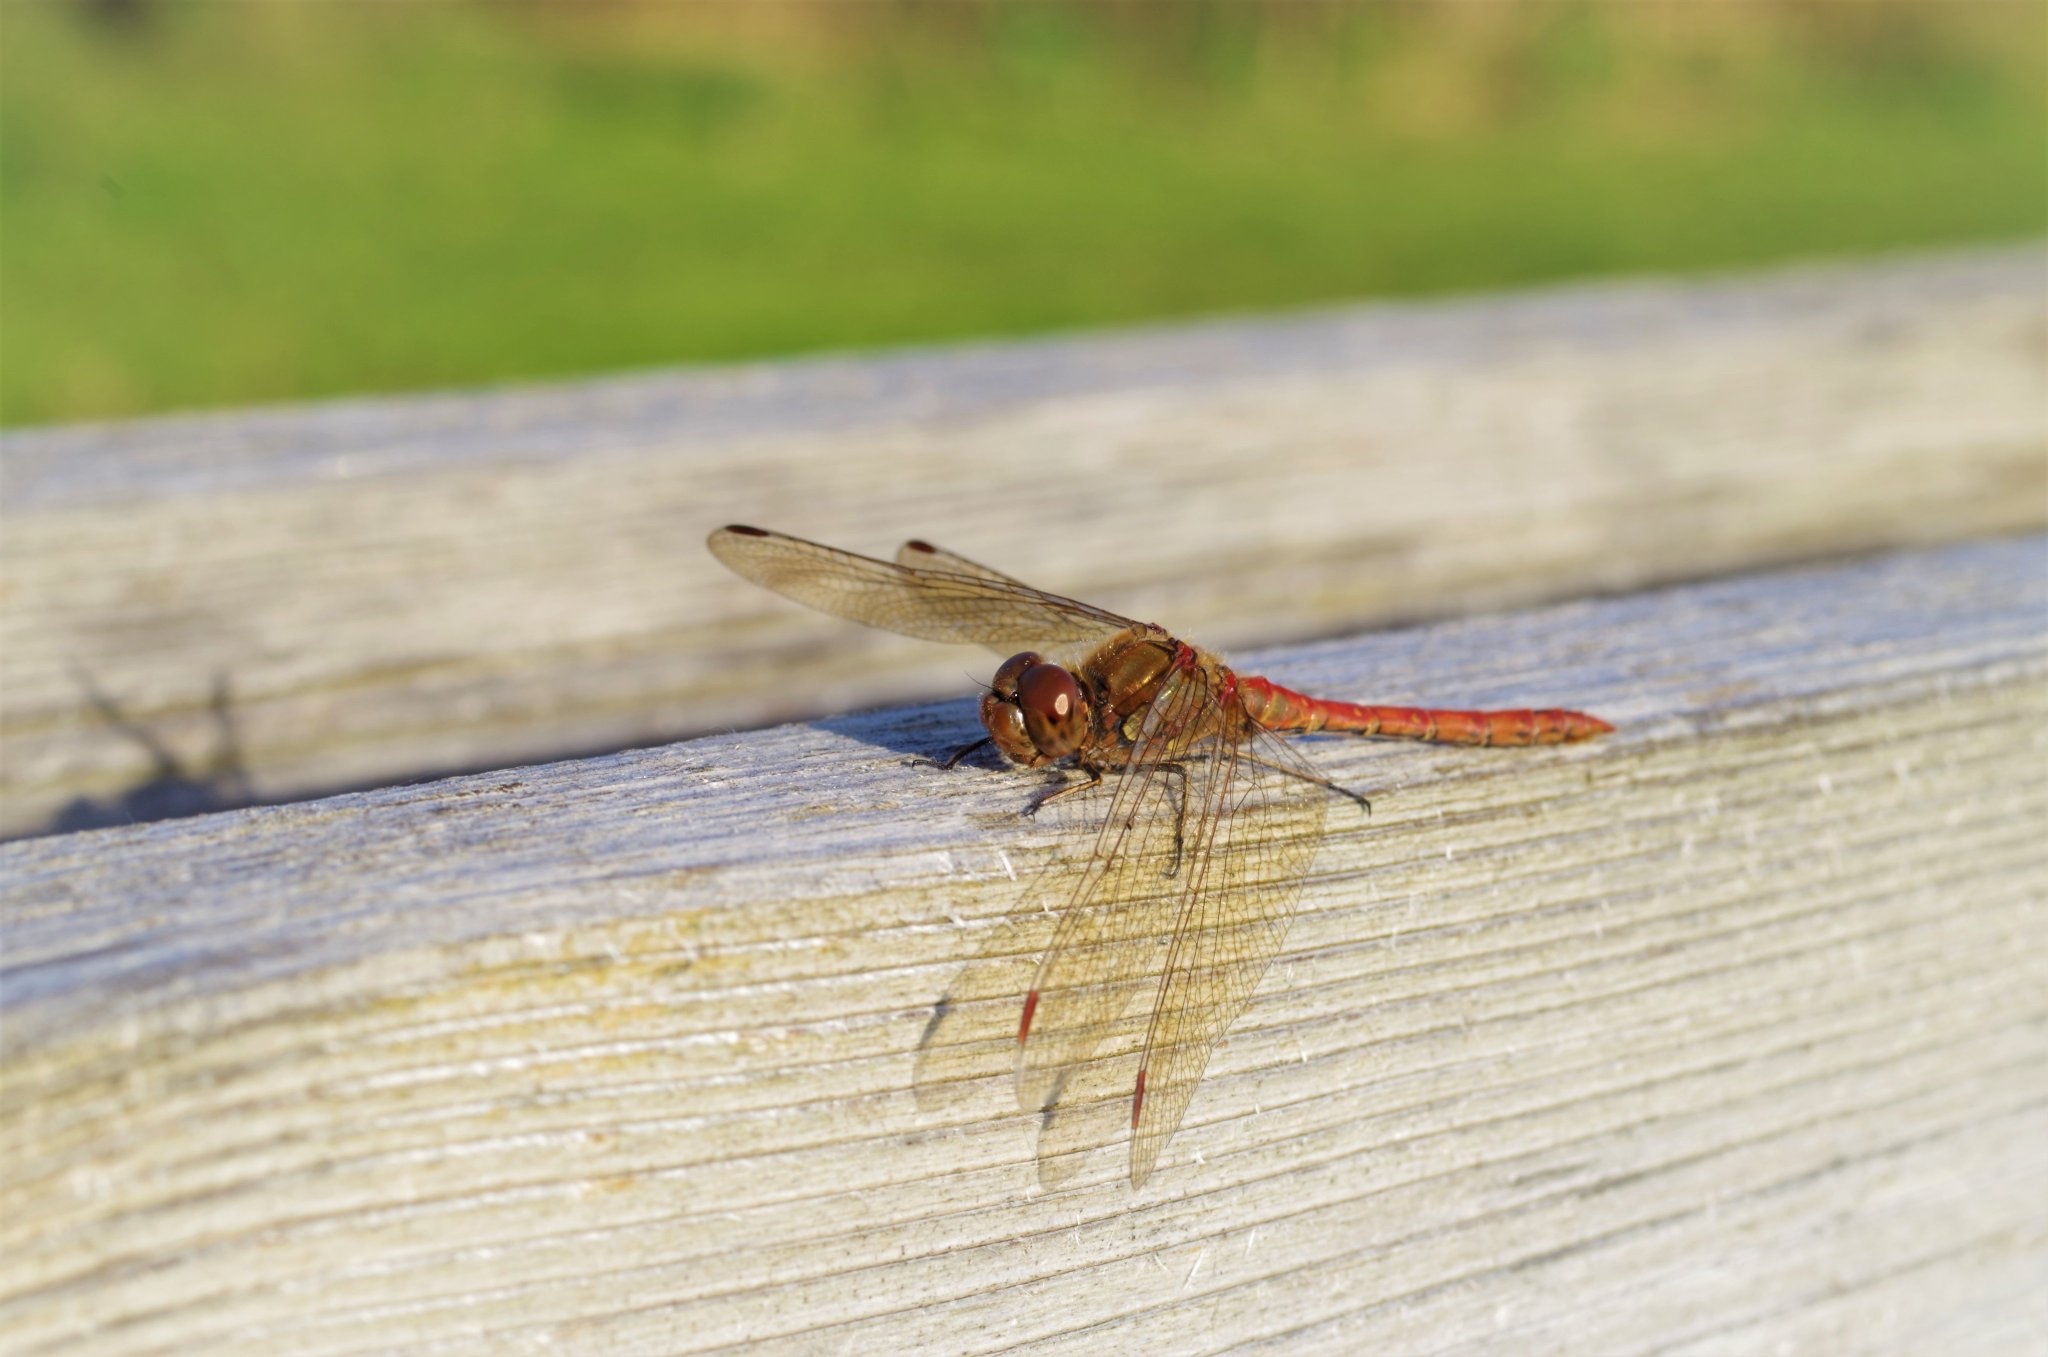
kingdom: Animalia
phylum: Arthropoda
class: Insecta
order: Odonata
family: Libellulidae
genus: Sympetrum
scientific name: Sympetrum striolatum
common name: Common darter
